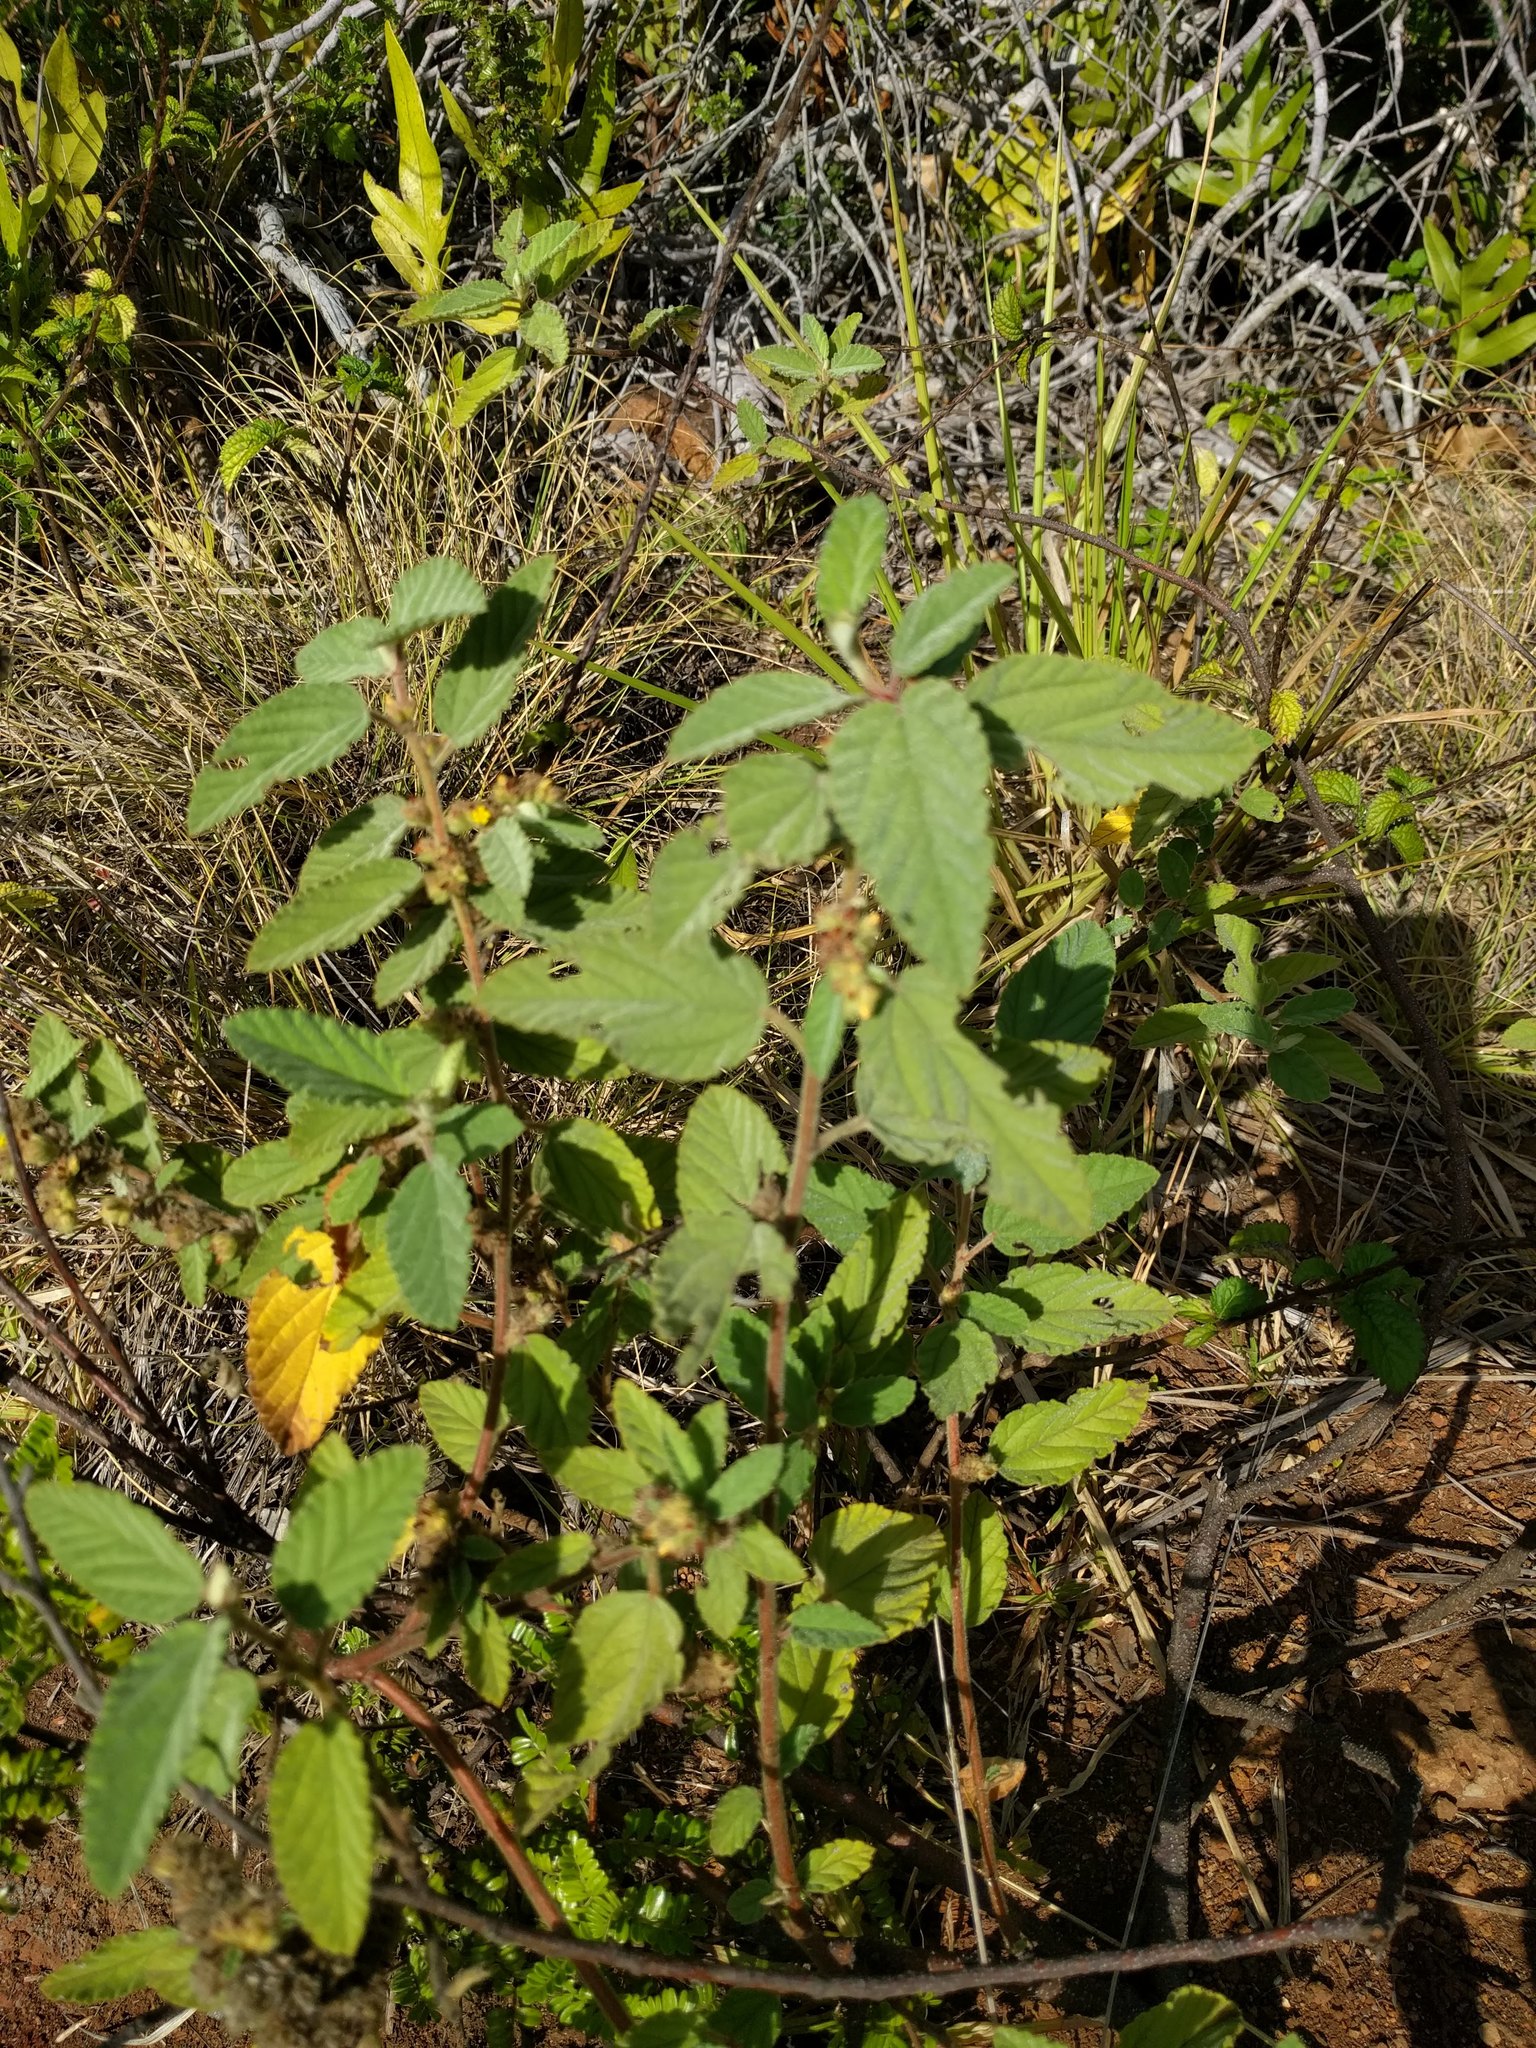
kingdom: Plantae
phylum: Tracheophyta
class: Magnoliopsida
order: Malvales
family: Malvaceae
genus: Waltheria
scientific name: Waltheria indica
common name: Leather-coat
